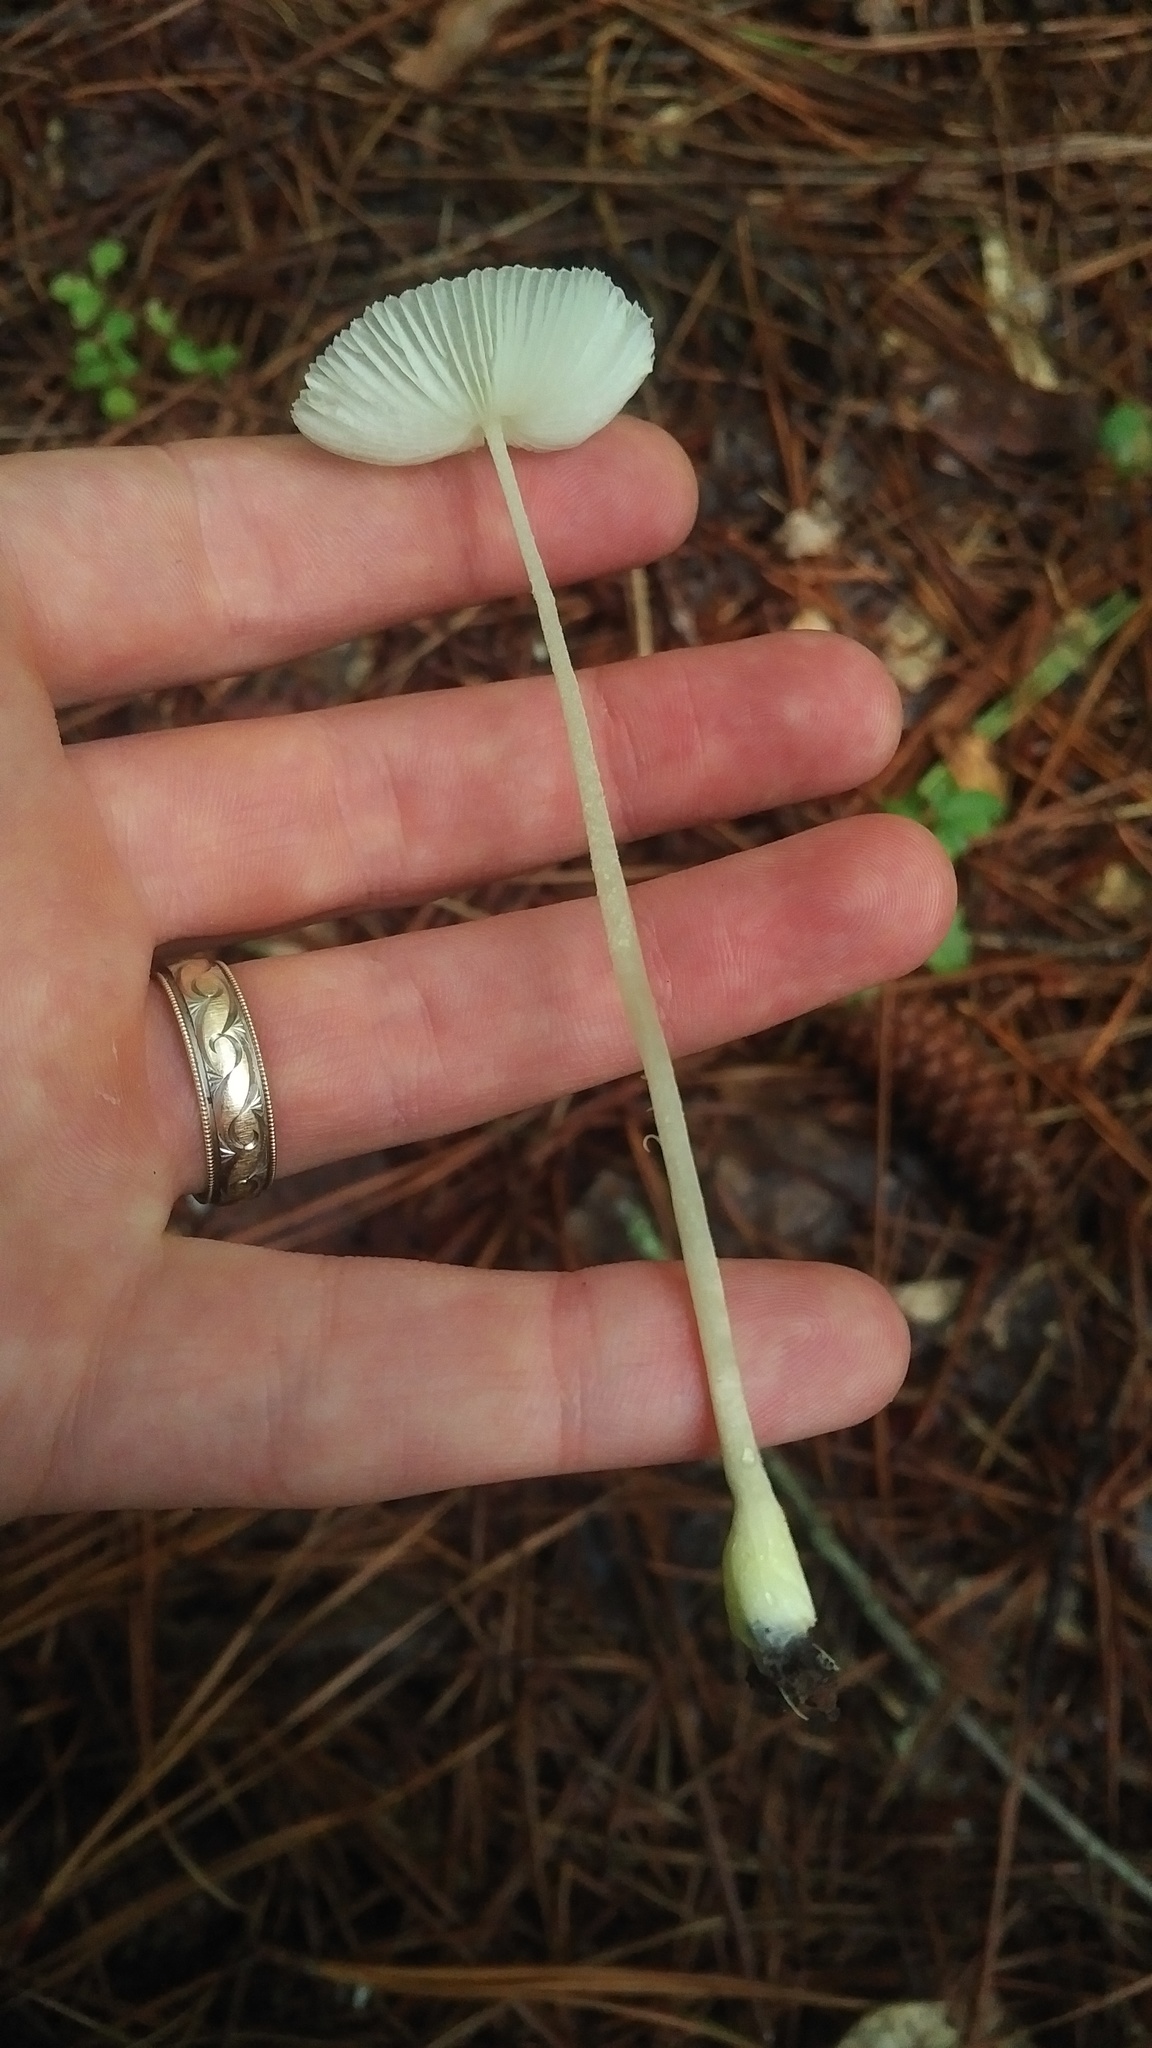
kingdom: Fungi
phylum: Basidiomycota
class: Agaricomycetes
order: Agaricales
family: Agaricaceae
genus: Leucocoprinus
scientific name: Leucocoprinus fragilissimus
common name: Fragile dapperling
